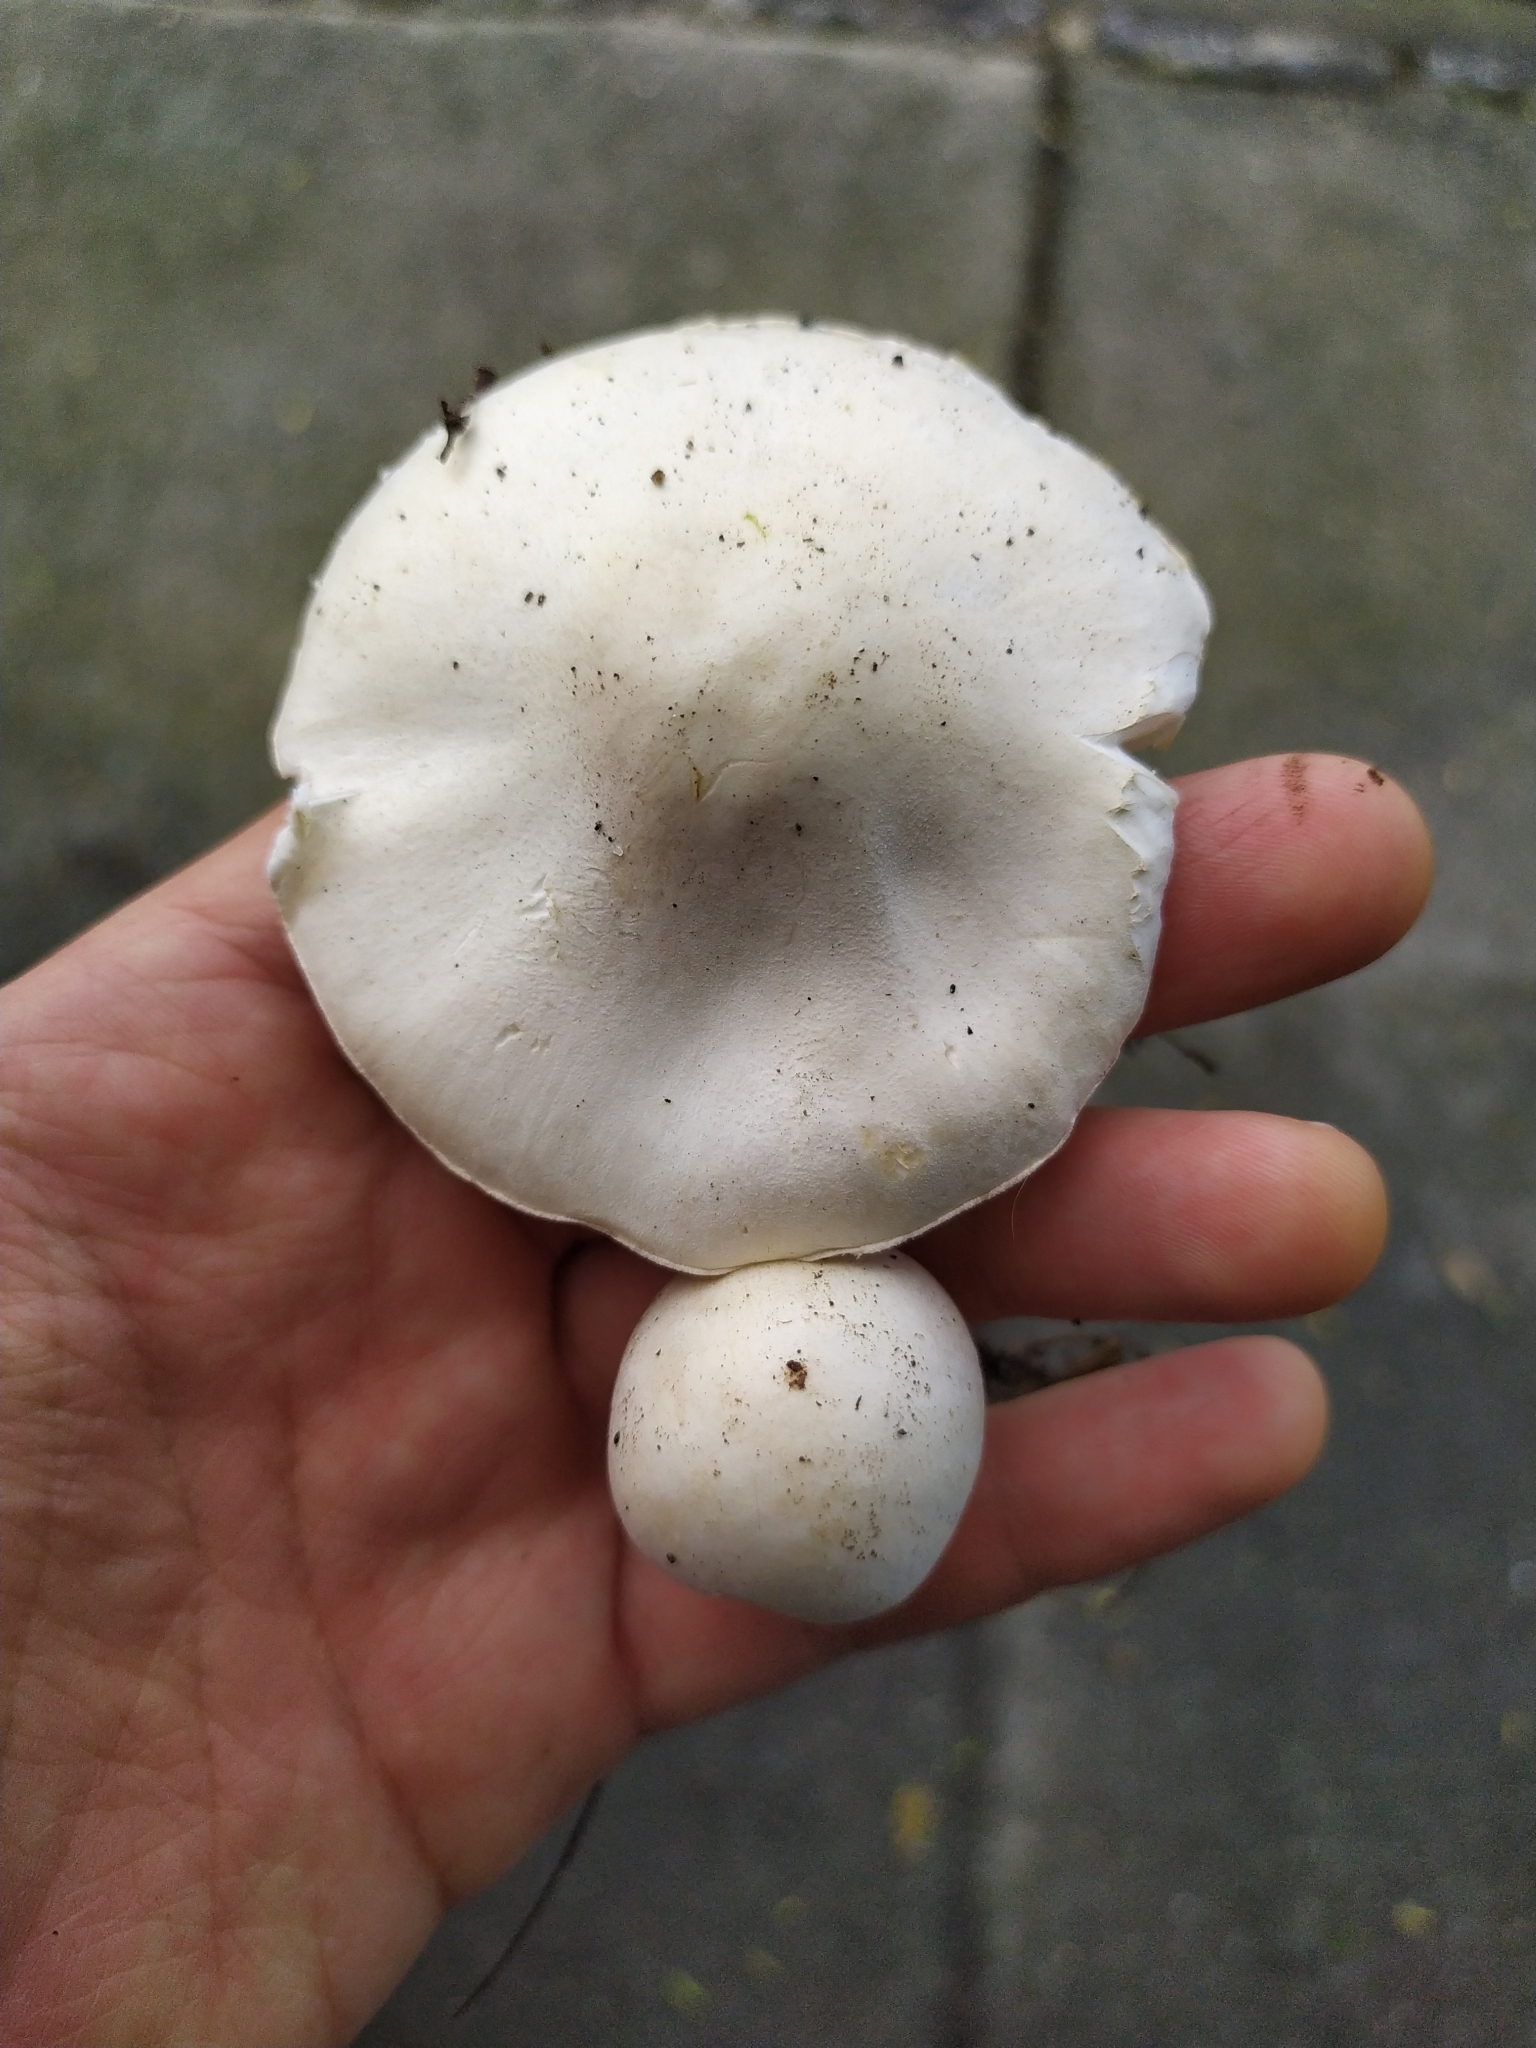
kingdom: Fungi
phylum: Basidiomycota
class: Agaricomycetes
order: Agaricales
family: Agaricaceae
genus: Leucoagaricus
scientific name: Leucoagaricus leucothites
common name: White dapperling
